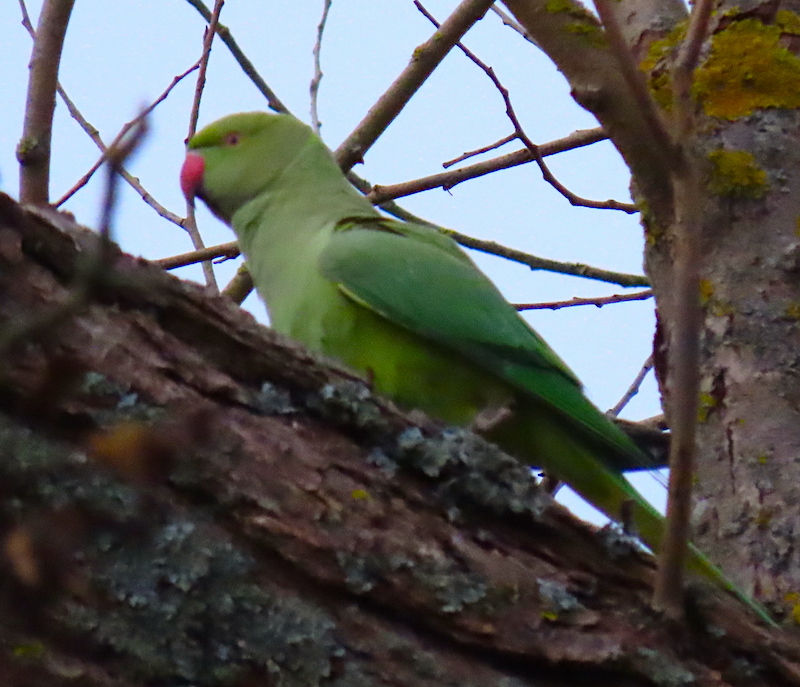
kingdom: Animalia
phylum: Chordata
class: Aves
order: Psittaciformes
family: Psittacidae
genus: Psittacula
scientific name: Psittacula krameri
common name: Rose-ringed parakeet
